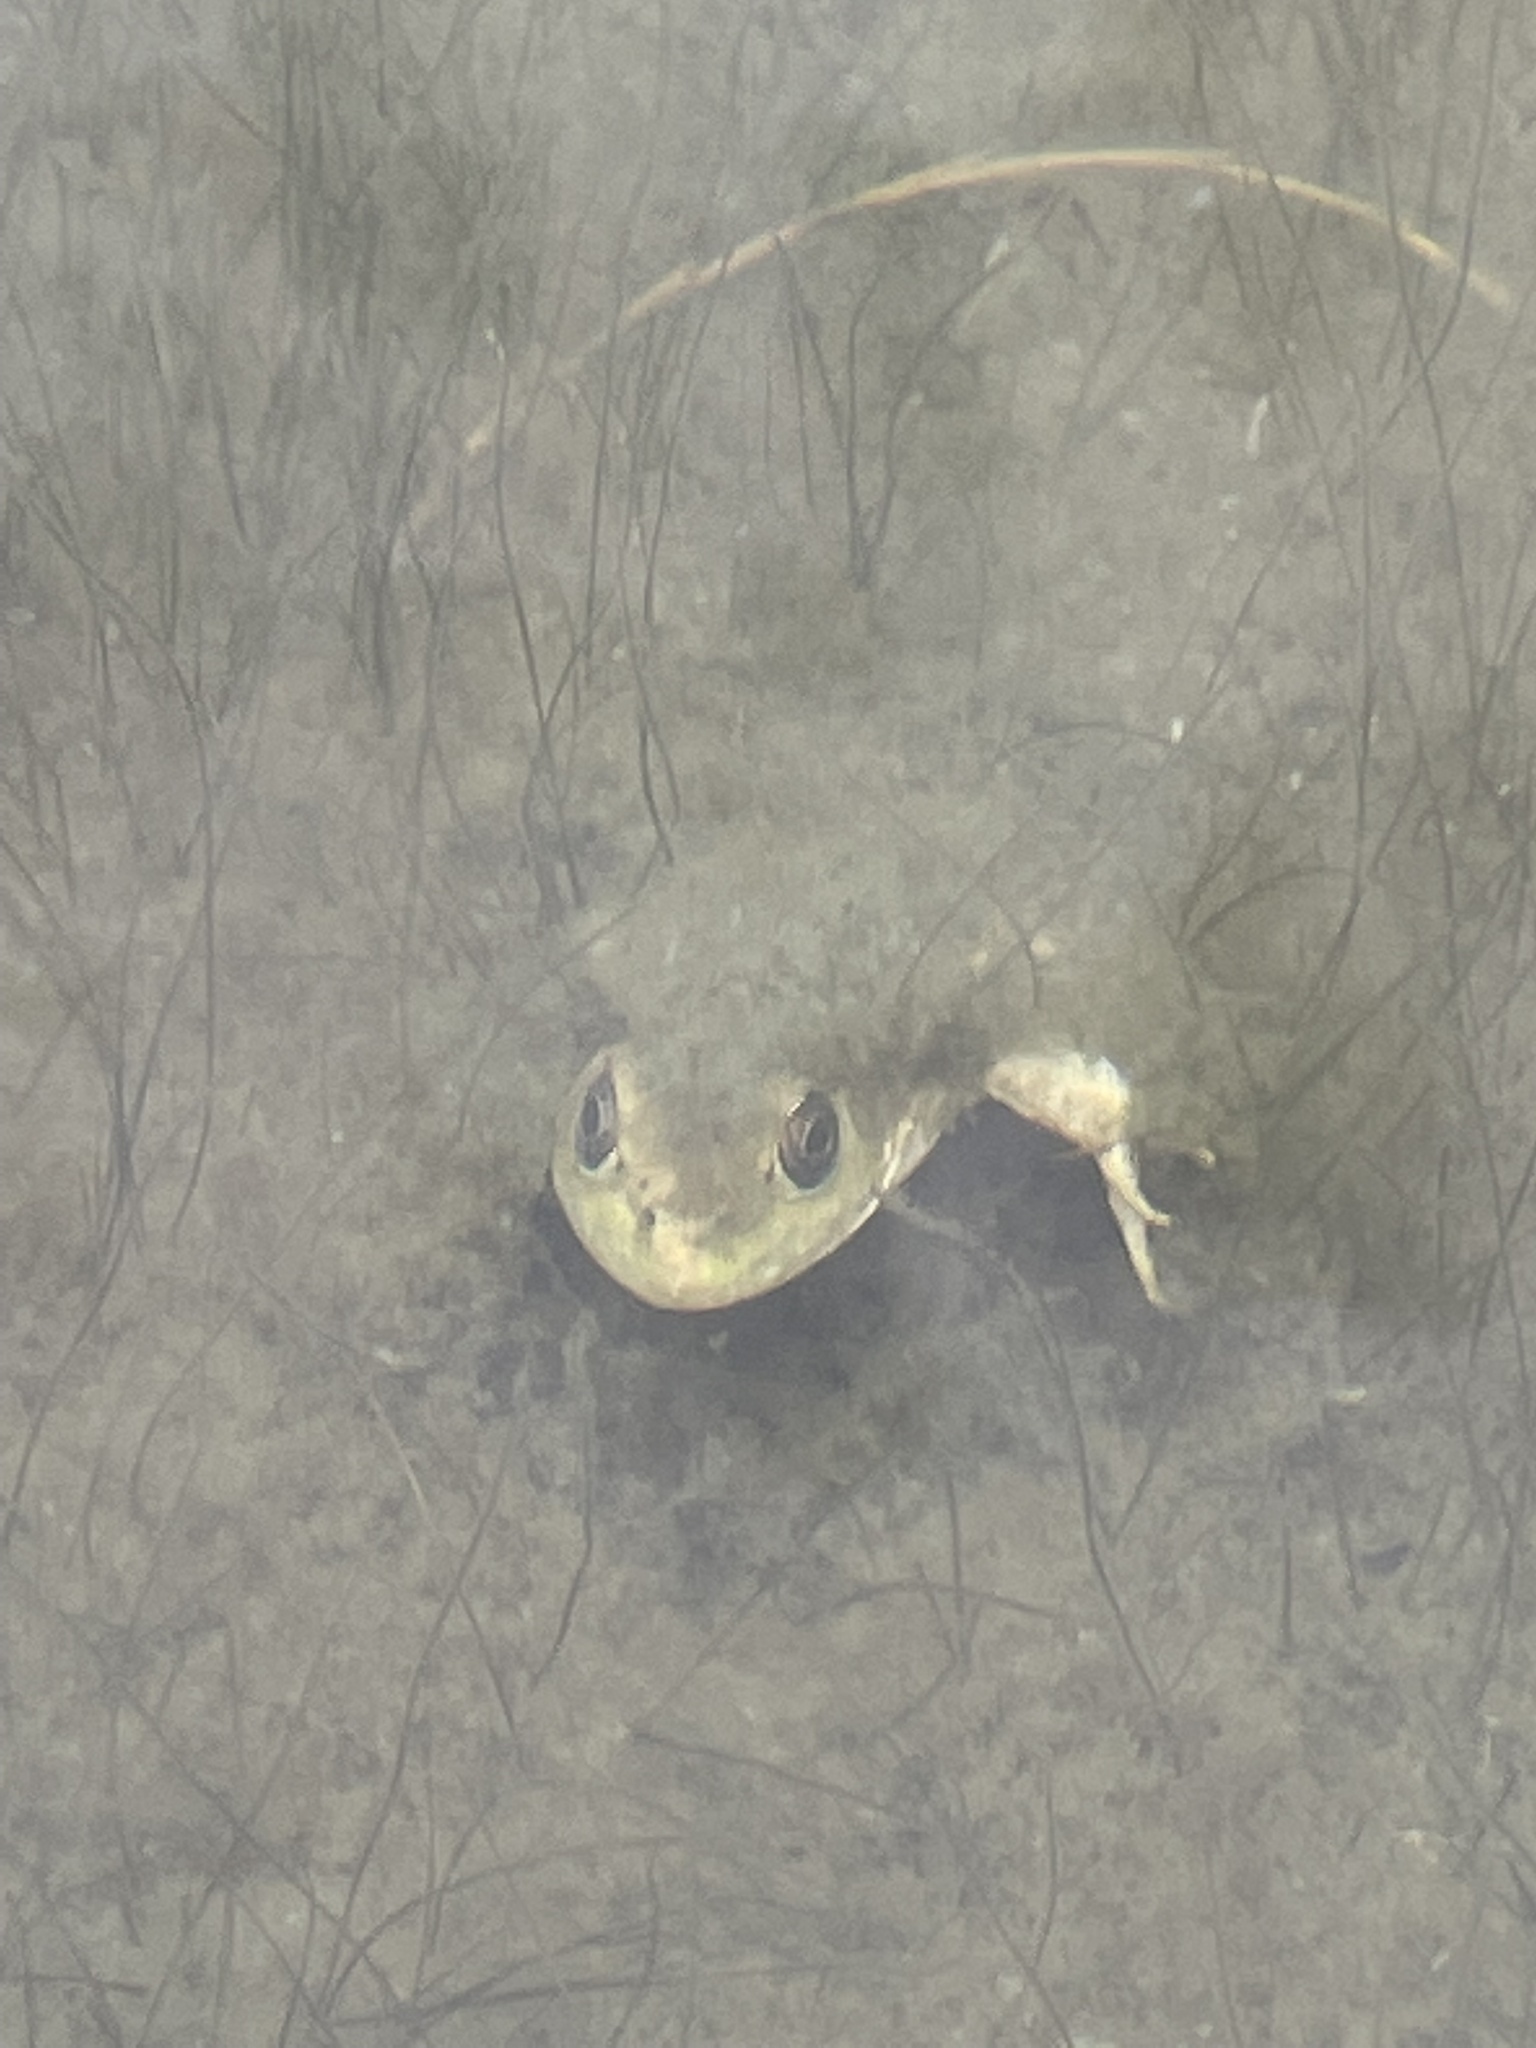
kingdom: Animalia
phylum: Chordata
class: Amphibia
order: Anura
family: Ranidae
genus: Lithobates
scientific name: Lithobates catesbeianus
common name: American bullfrog
